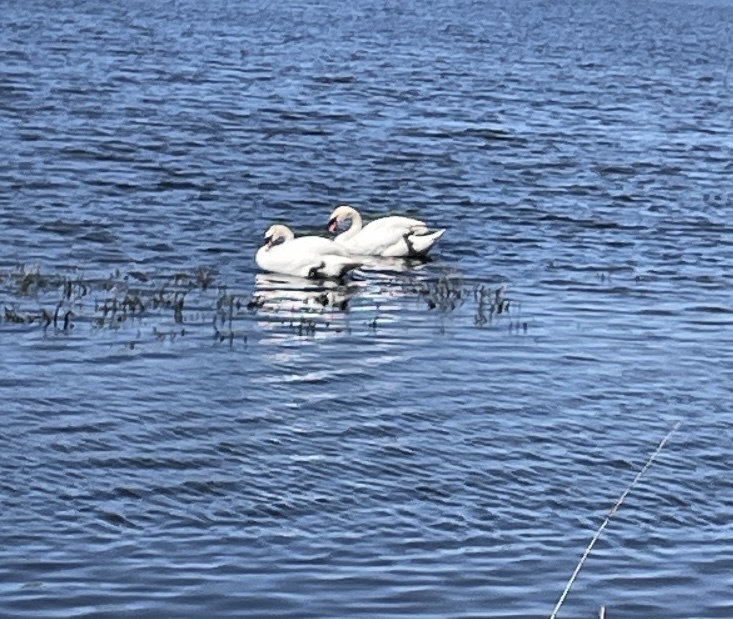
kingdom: Animalia
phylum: Chordata
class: Aves
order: Anseriformes
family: Anatidae
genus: Cygnus
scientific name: Cygnus olor
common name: Mute swan
